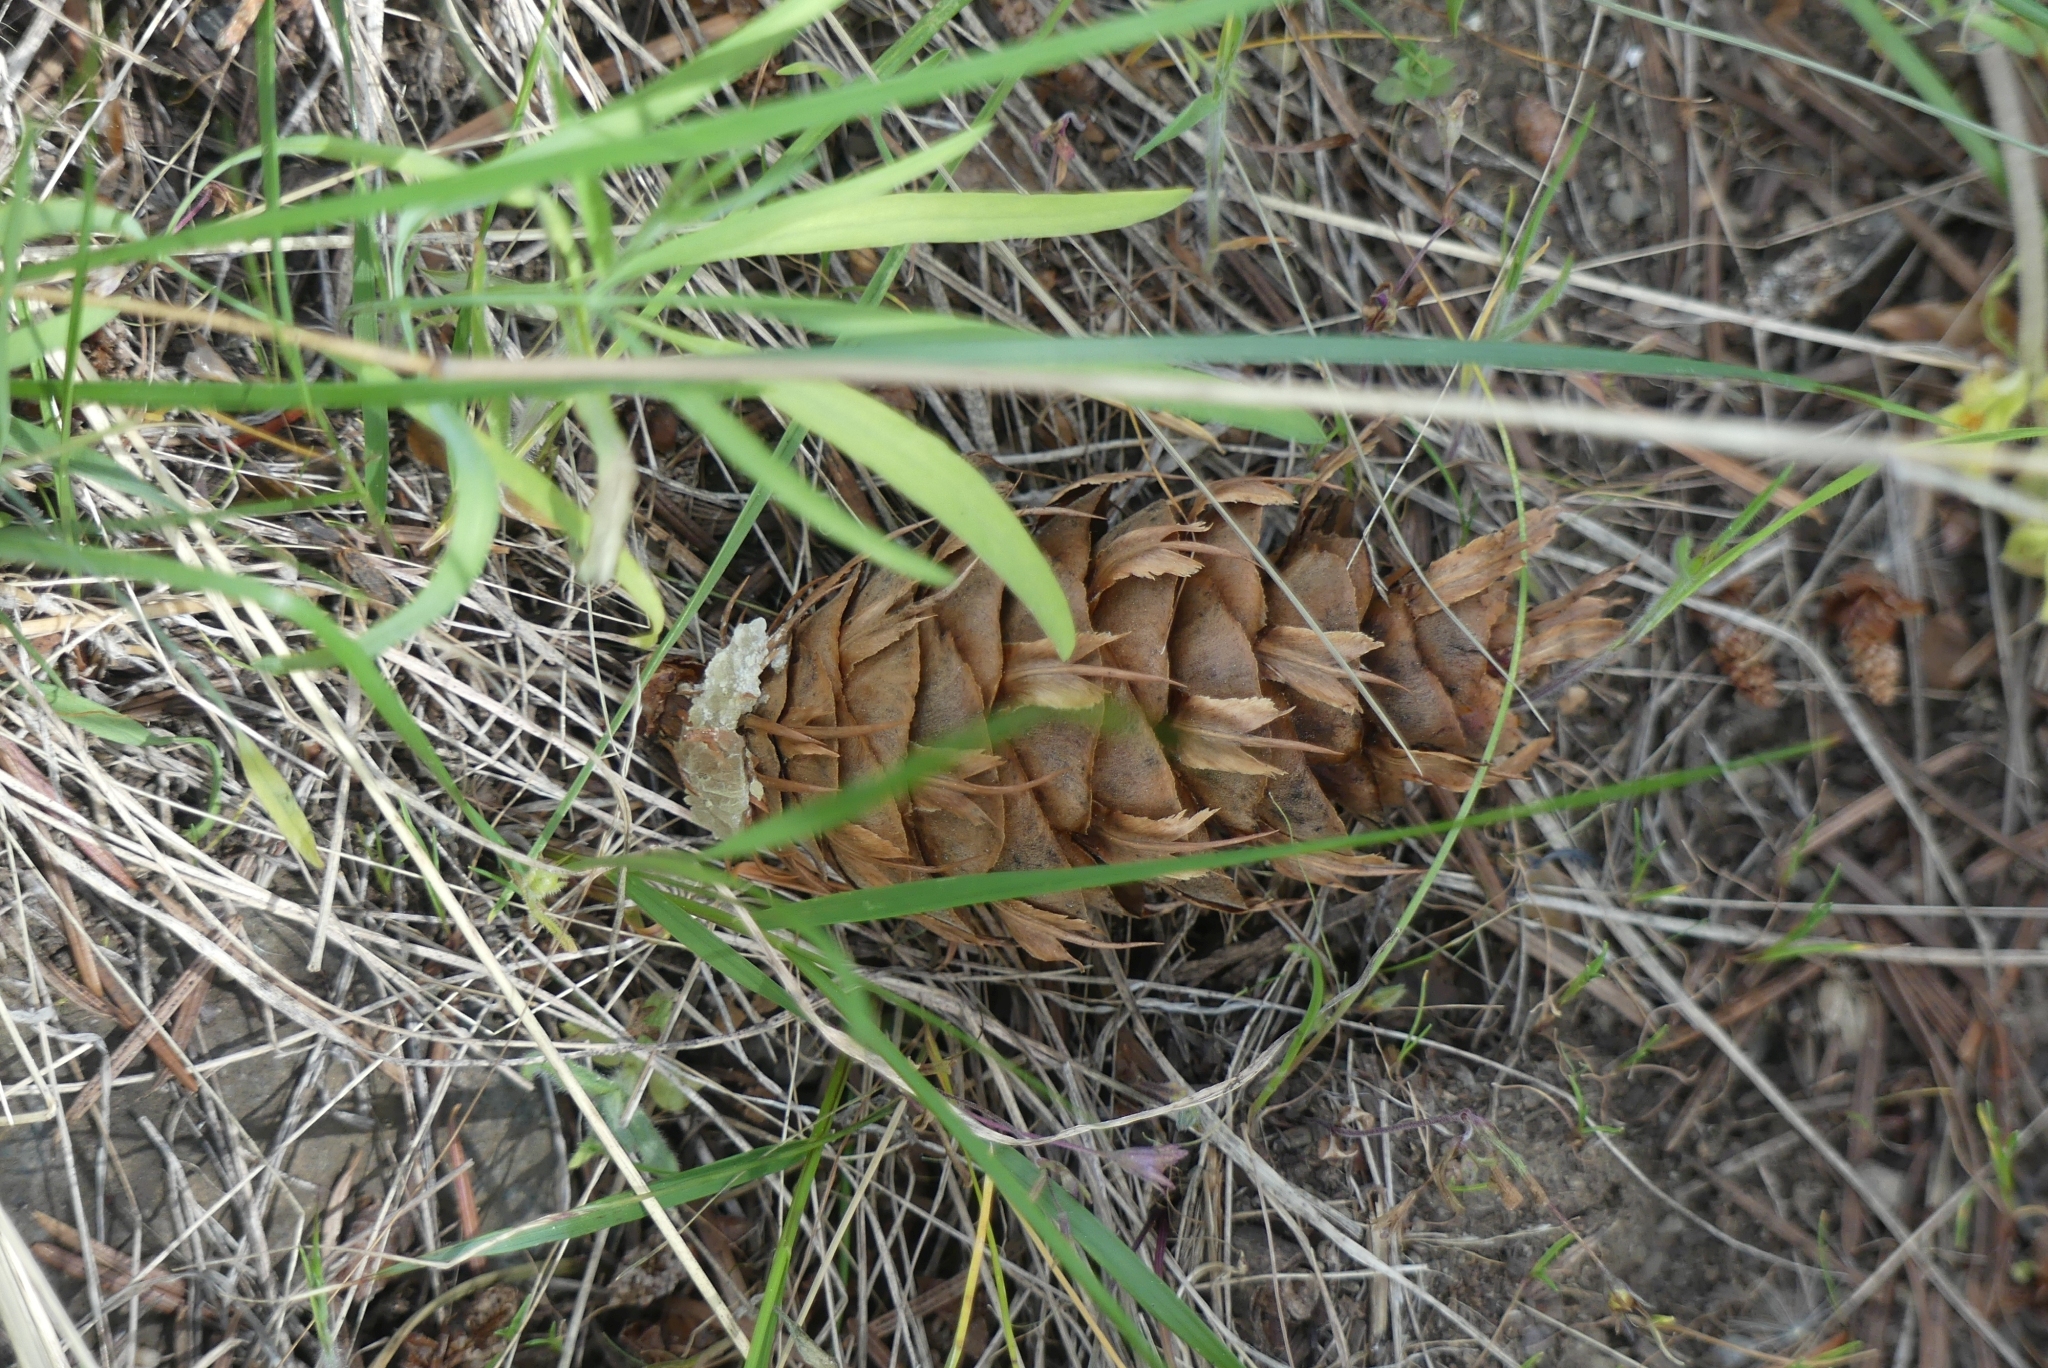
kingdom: Plantae
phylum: Tracheophyta
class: Pinopsida
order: Pinales
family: Pinaceae
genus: Pseudotsuga
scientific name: Pseudotsuga menziesii
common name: Douglas fir
